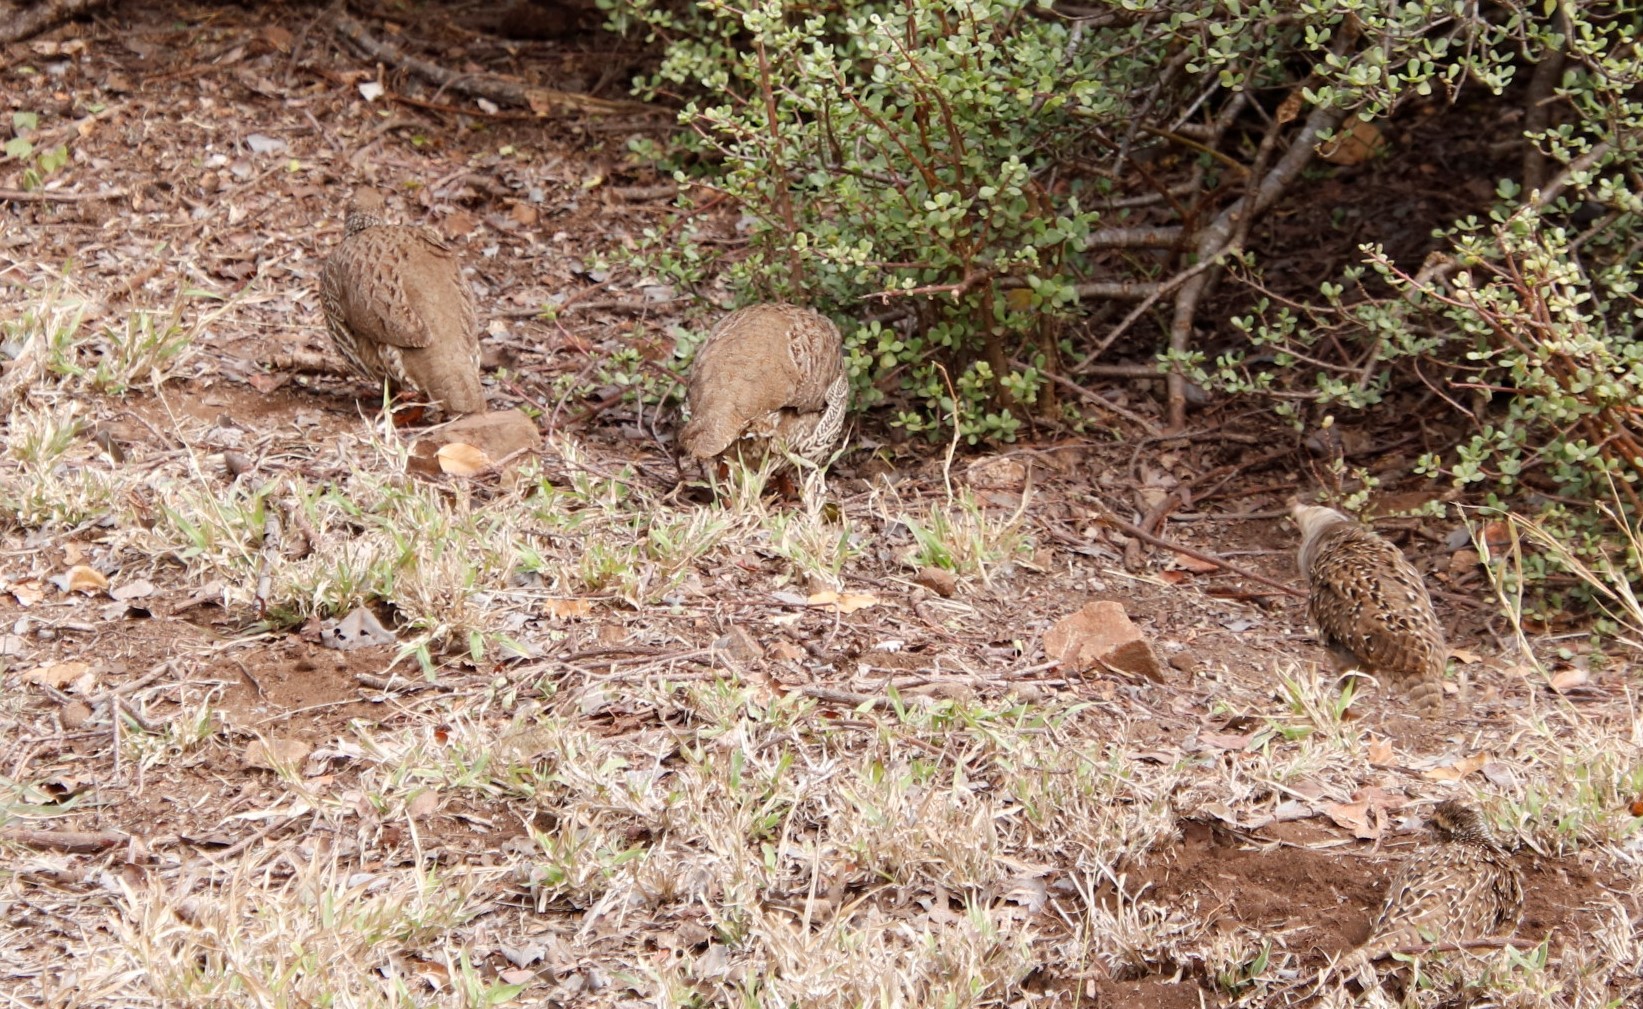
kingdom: Animalia
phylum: Chordata
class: Aves
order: Galliformes
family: Phasianidae
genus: Pternistis
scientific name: Pternistis natalensis
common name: Natal spurfowl
